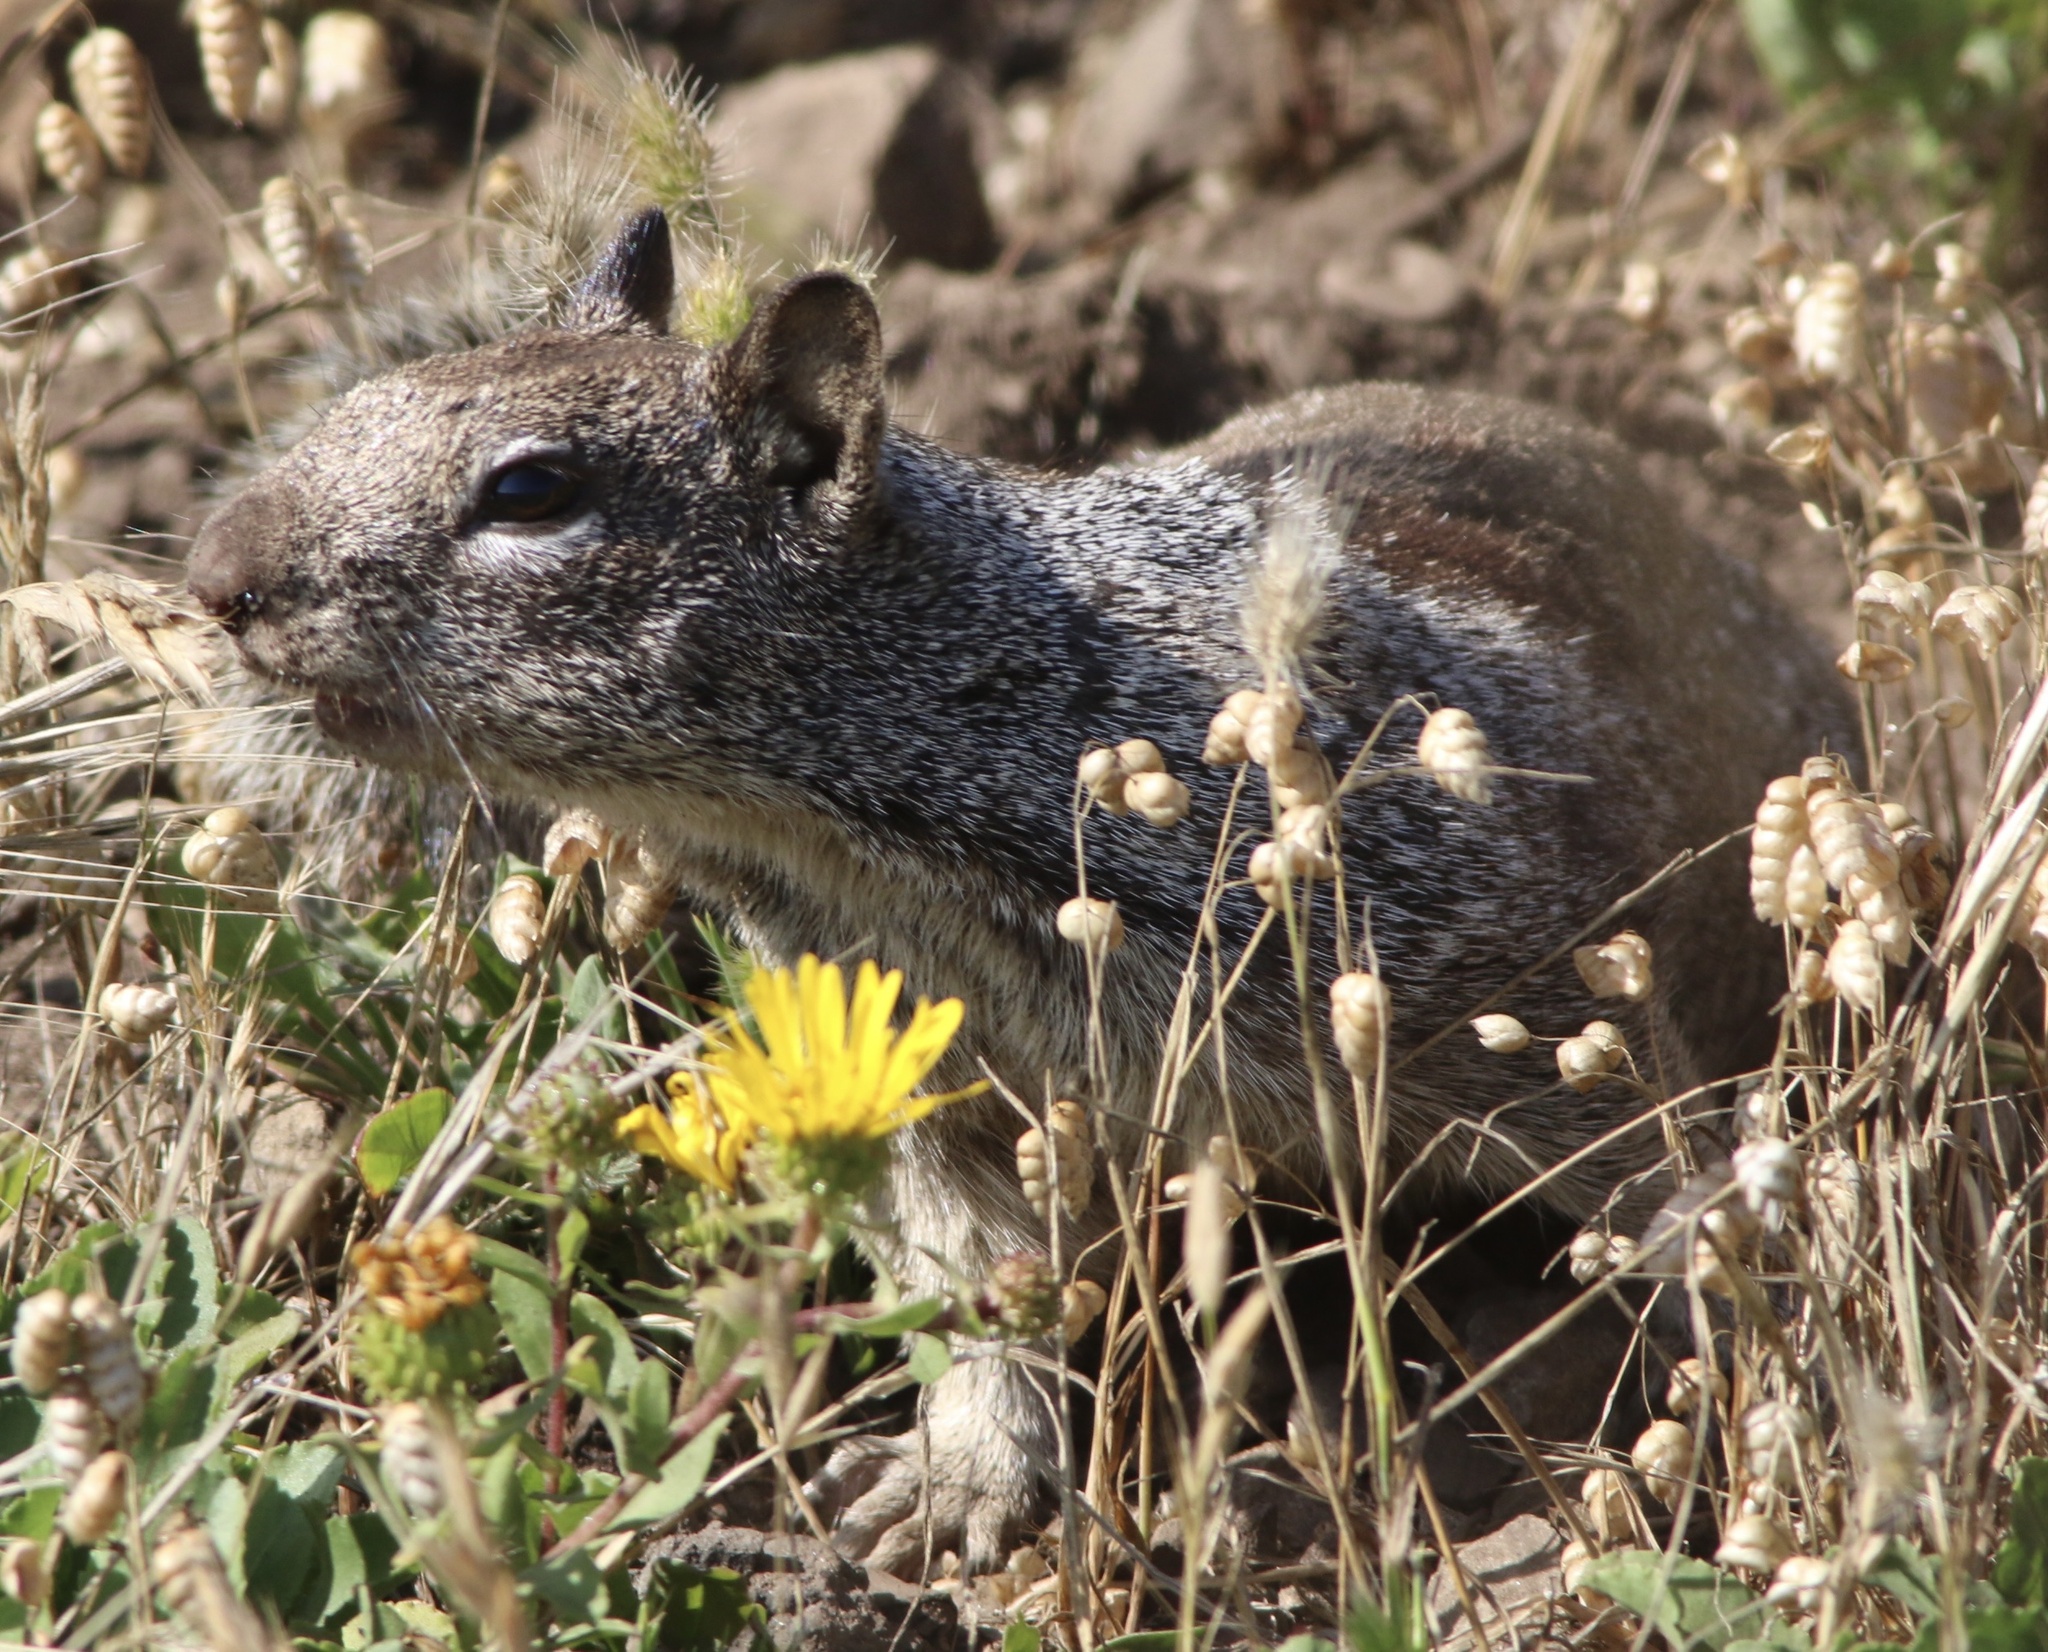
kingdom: Animalia
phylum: Chordata
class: Mammalia
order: Rodentia
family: Sciuridae
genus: Otospermophilus
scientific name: Otospermophilus beecheyi
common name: California ground squirrel
